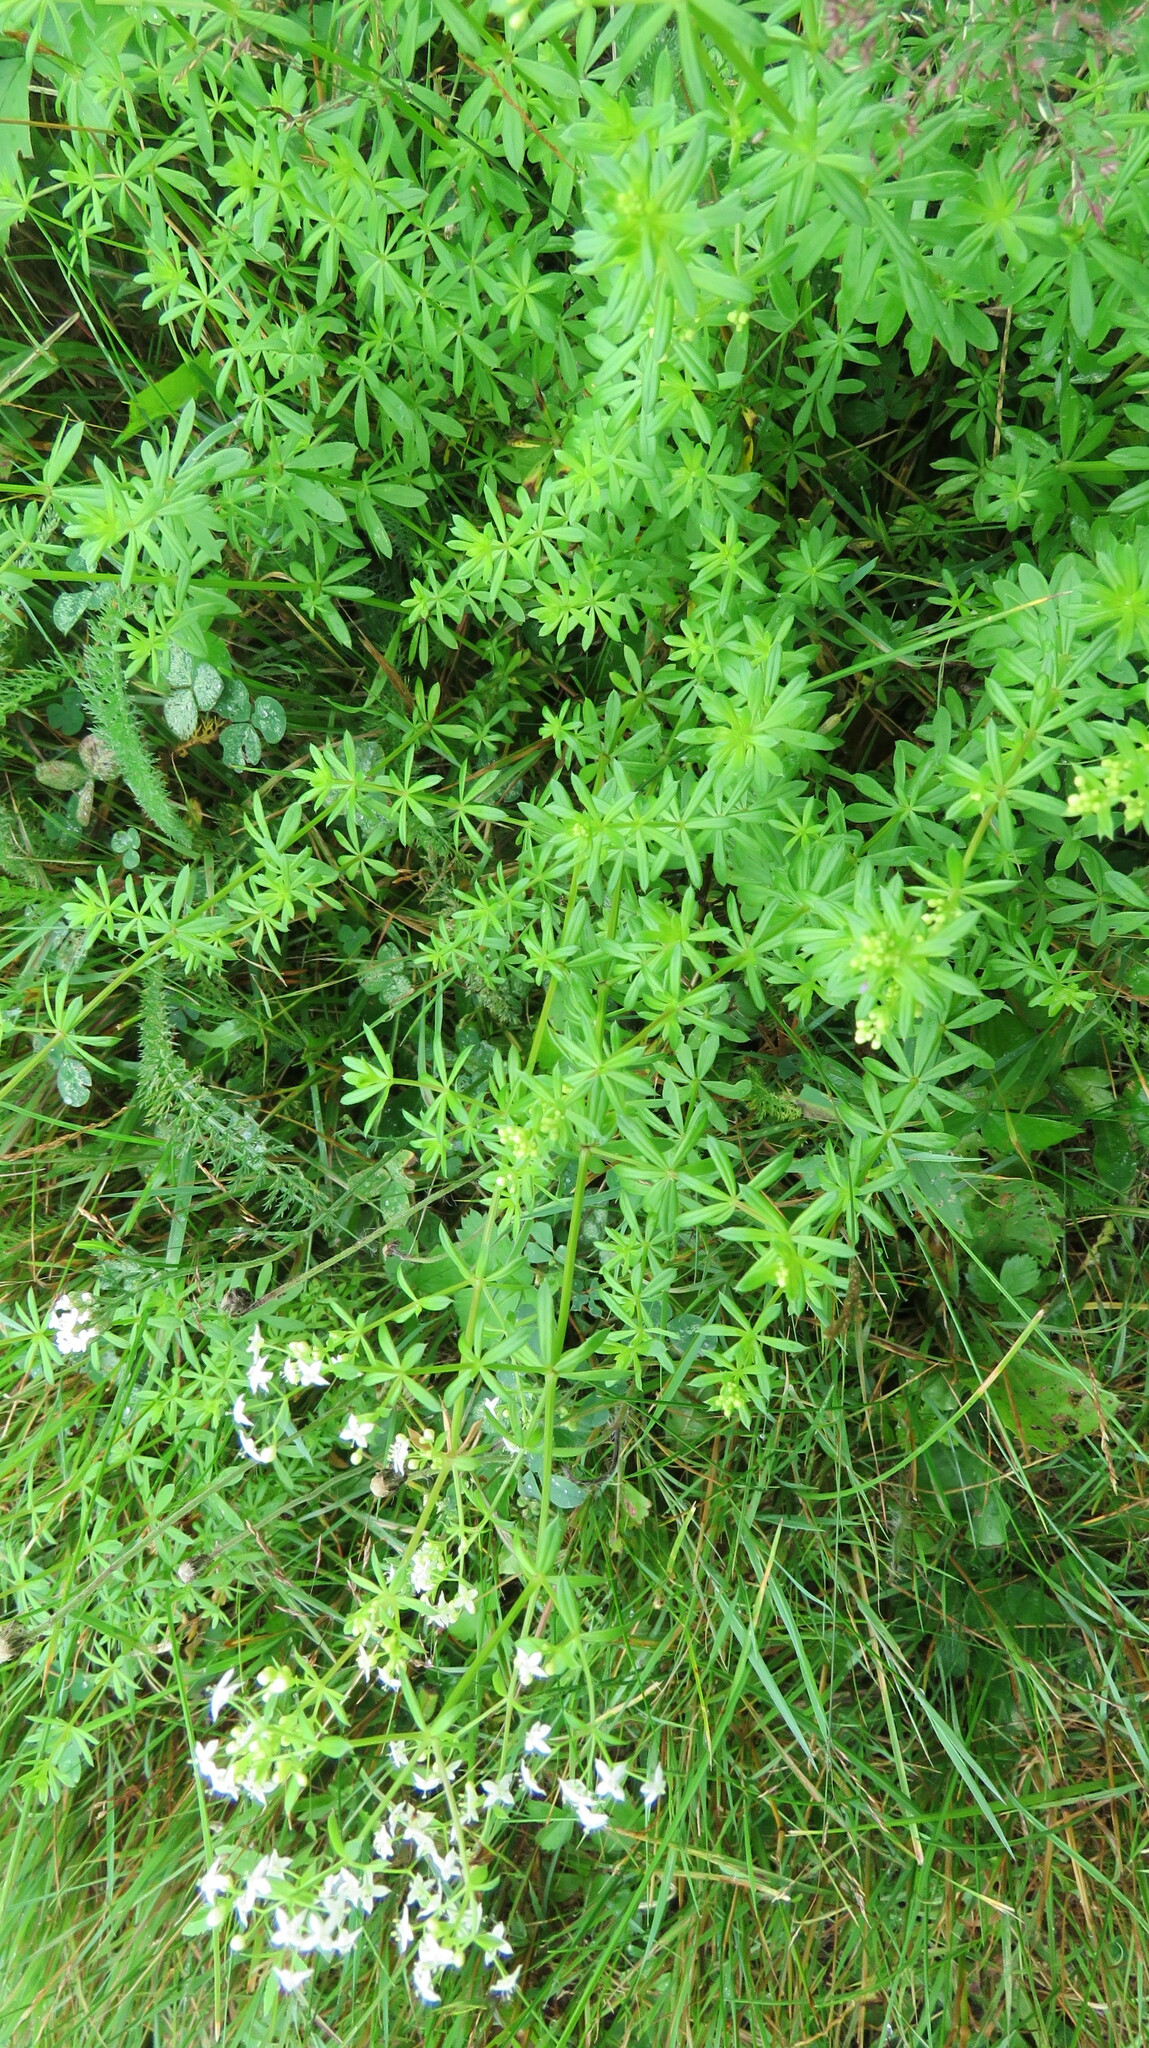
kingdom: Plantae
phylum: Tracheophyta
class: Magnoliopsida
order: Gentianales
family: Rubiaceae
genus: Galium
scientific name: Galium mollugo
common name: Hedge bedstraw
